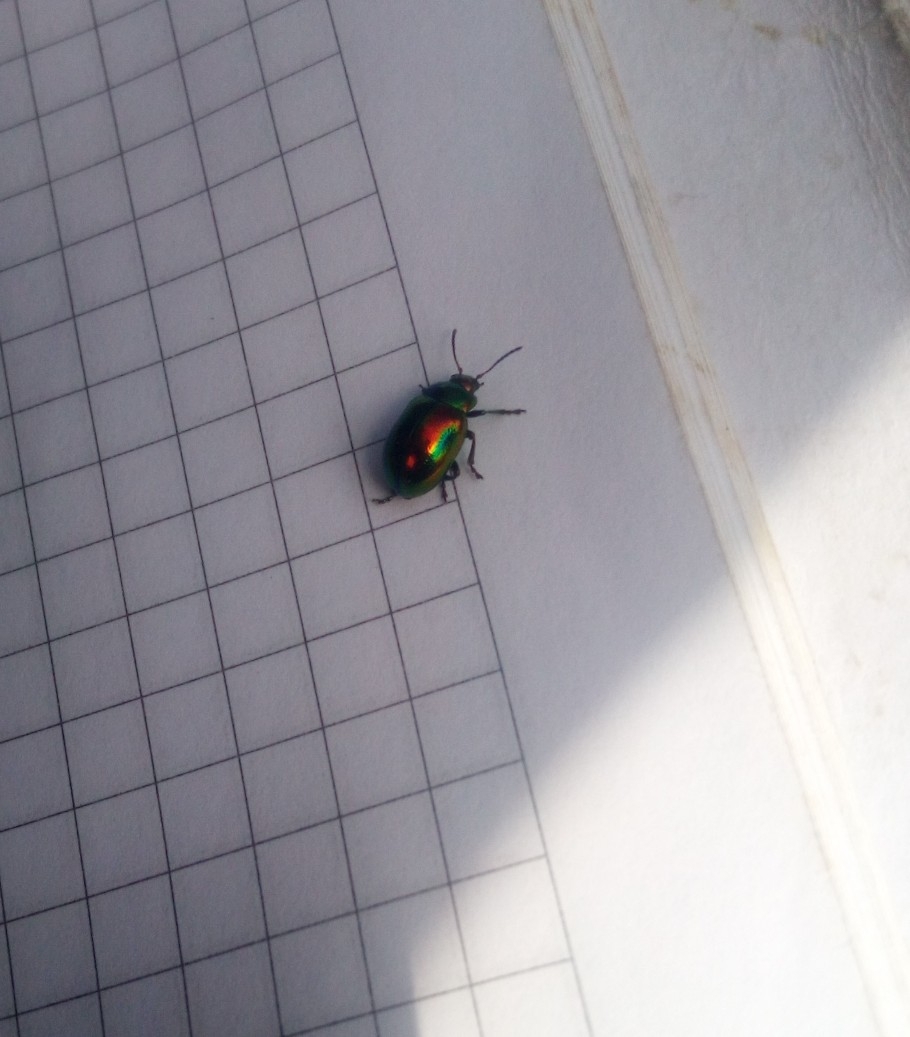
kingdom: Animalia
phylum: Arthropoda
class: Insecta
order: Coleoptera
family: Chrysomelidae
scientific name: Chrysomelidae
